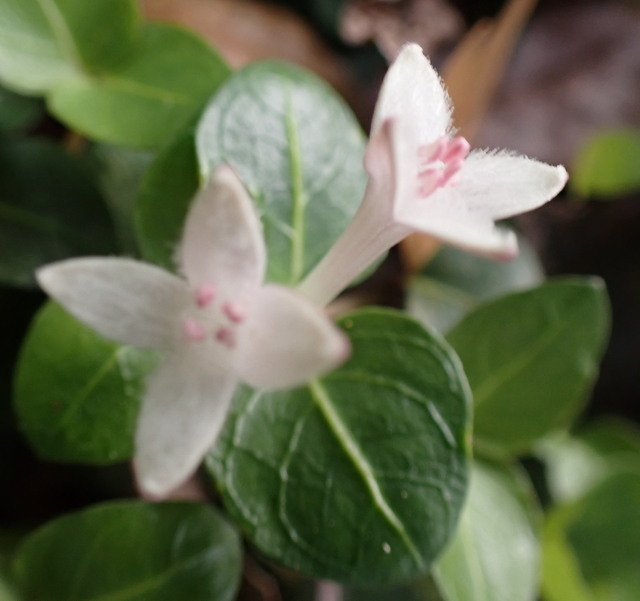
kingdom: Plantae
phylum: Tracheophyta
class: Magnoliopsida
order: Gentianales
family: Rubiaceae
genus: Mitchella
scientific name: Mitchella repens
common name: Partridge-berry
